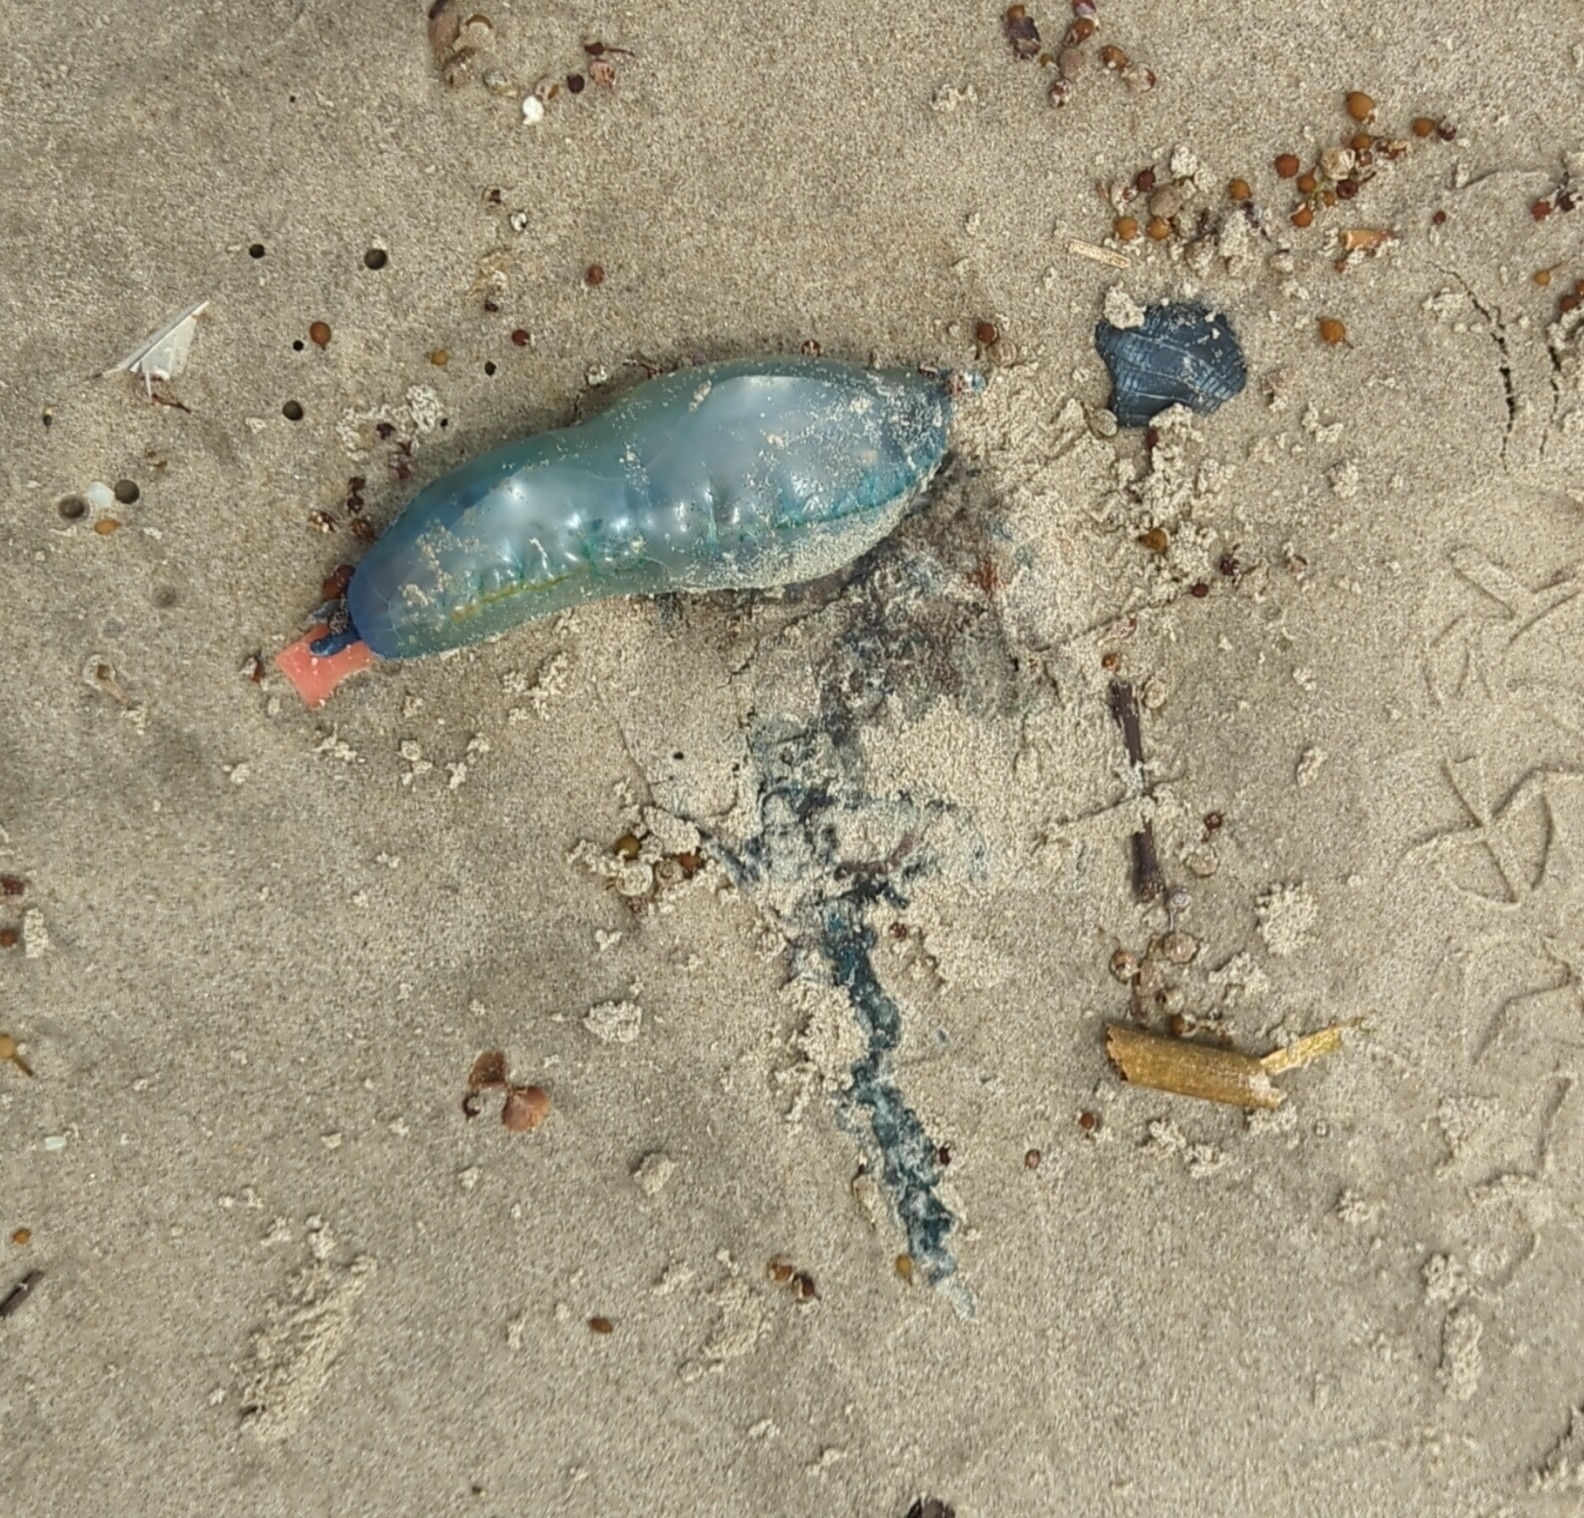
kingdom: Animalia
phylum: Cnidaria
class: Hydrozoa
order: Siphonophorae
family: Physaliidae
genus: Physalia
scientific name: Physalia physalis
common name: Portuguese man-of-war
